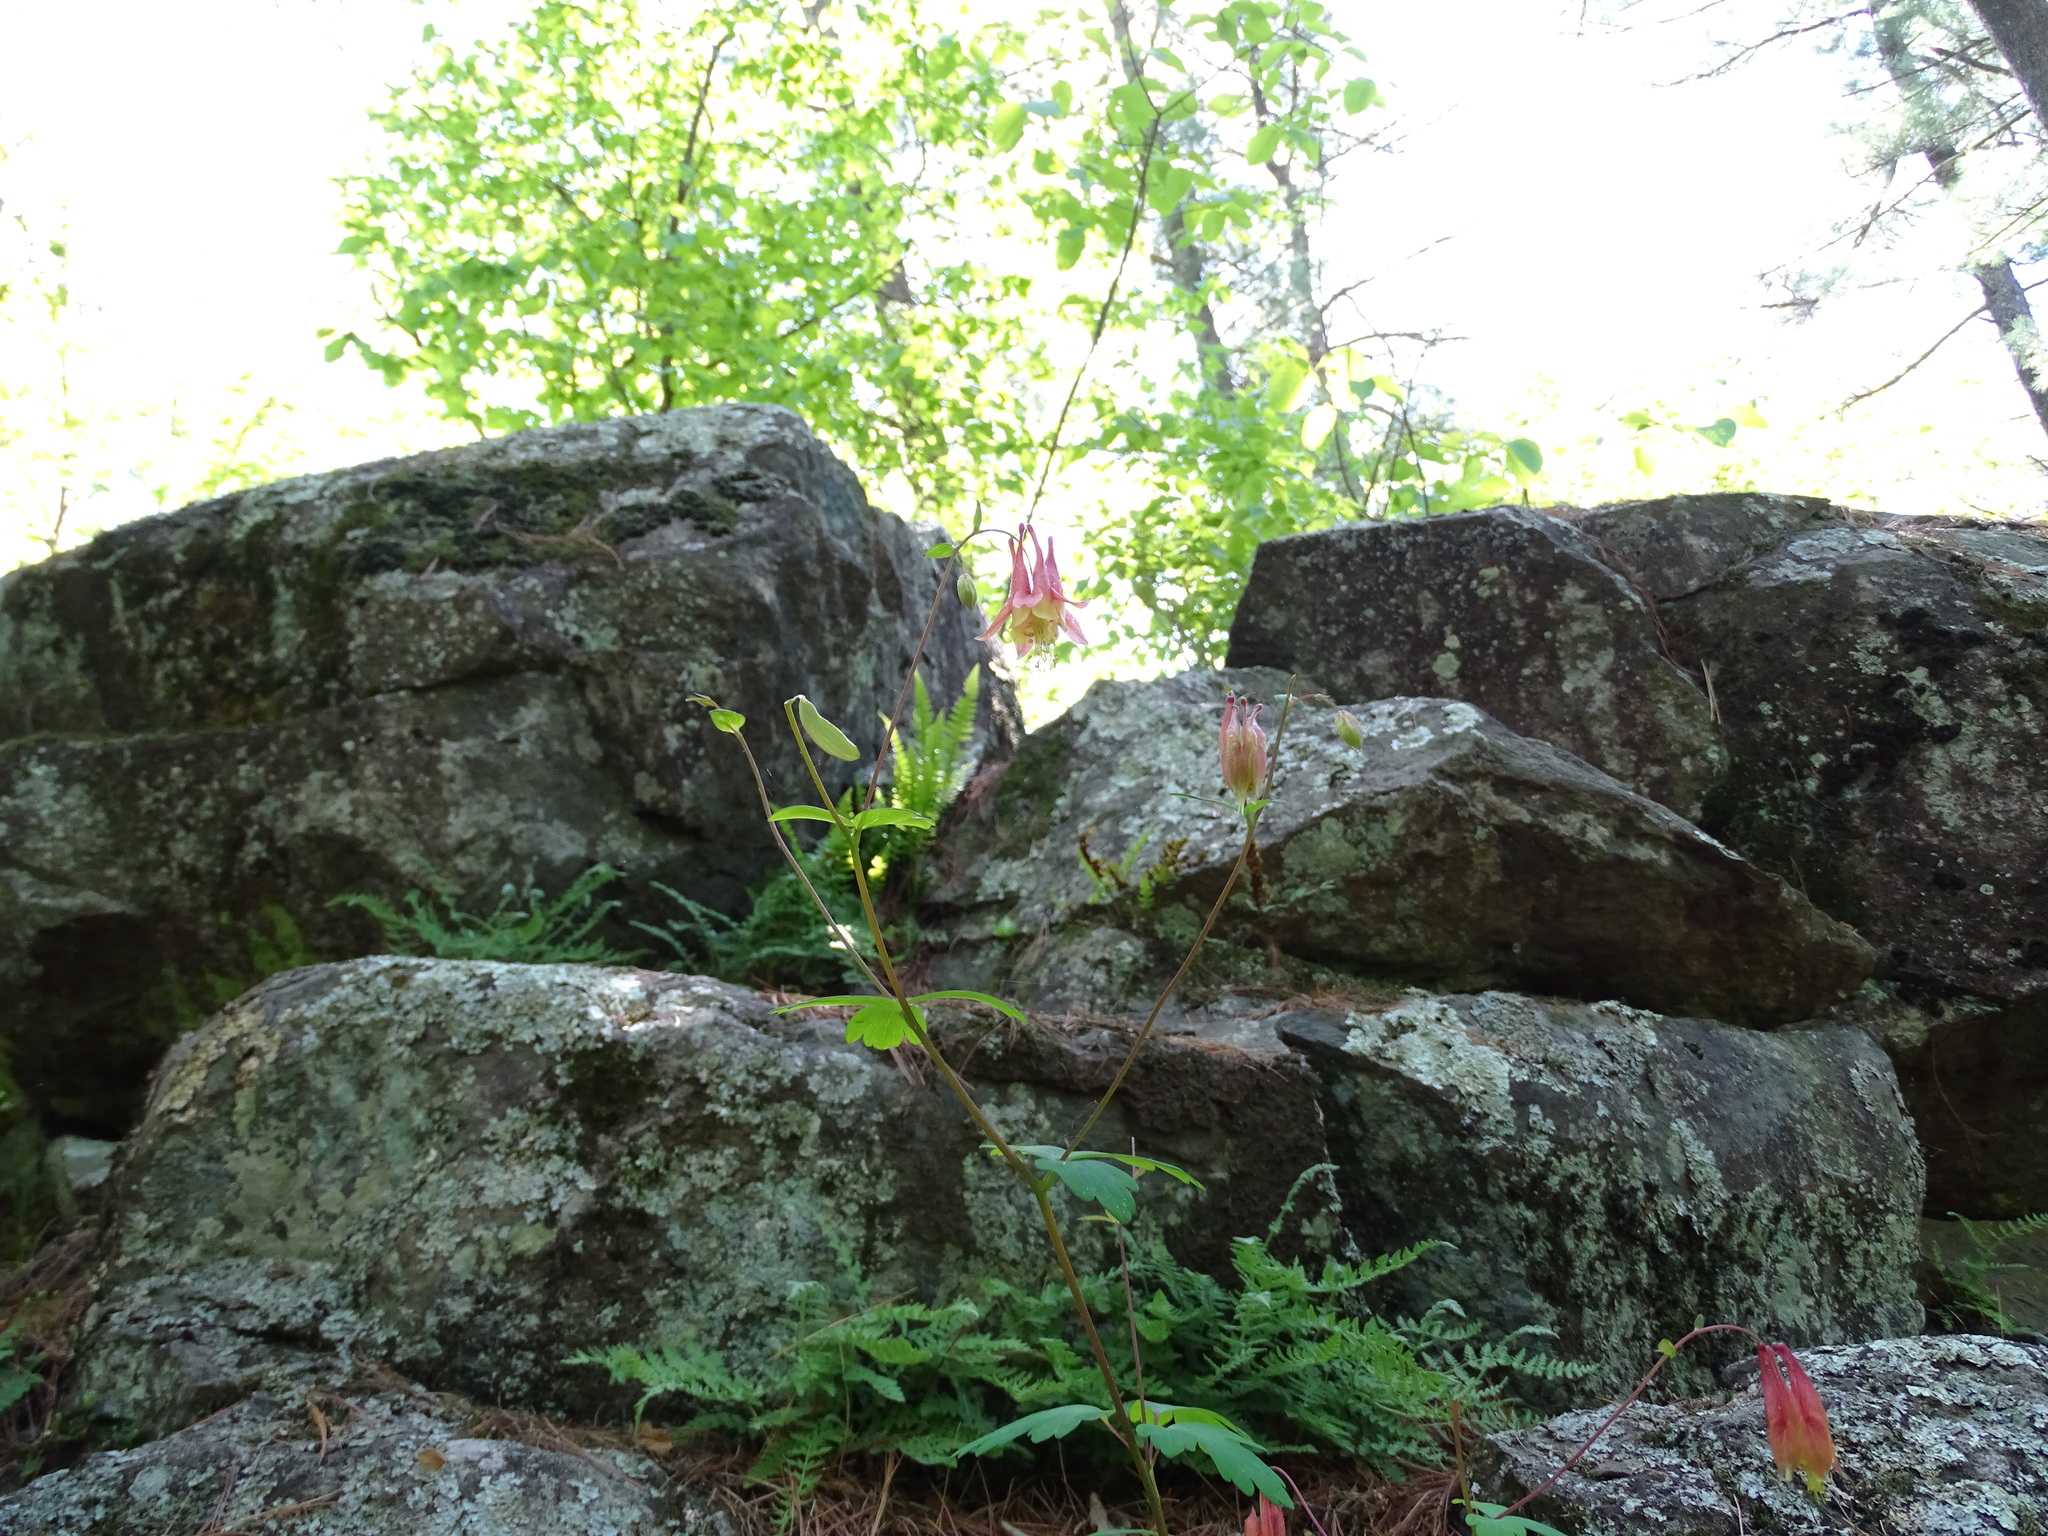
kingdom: Plantae
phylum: Tracheophyta
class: Magnoliopsida
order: Ranunculales
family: Ranunculaceae
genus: Aquilegia
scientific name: Aquilegia canadensis
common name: American columbine
